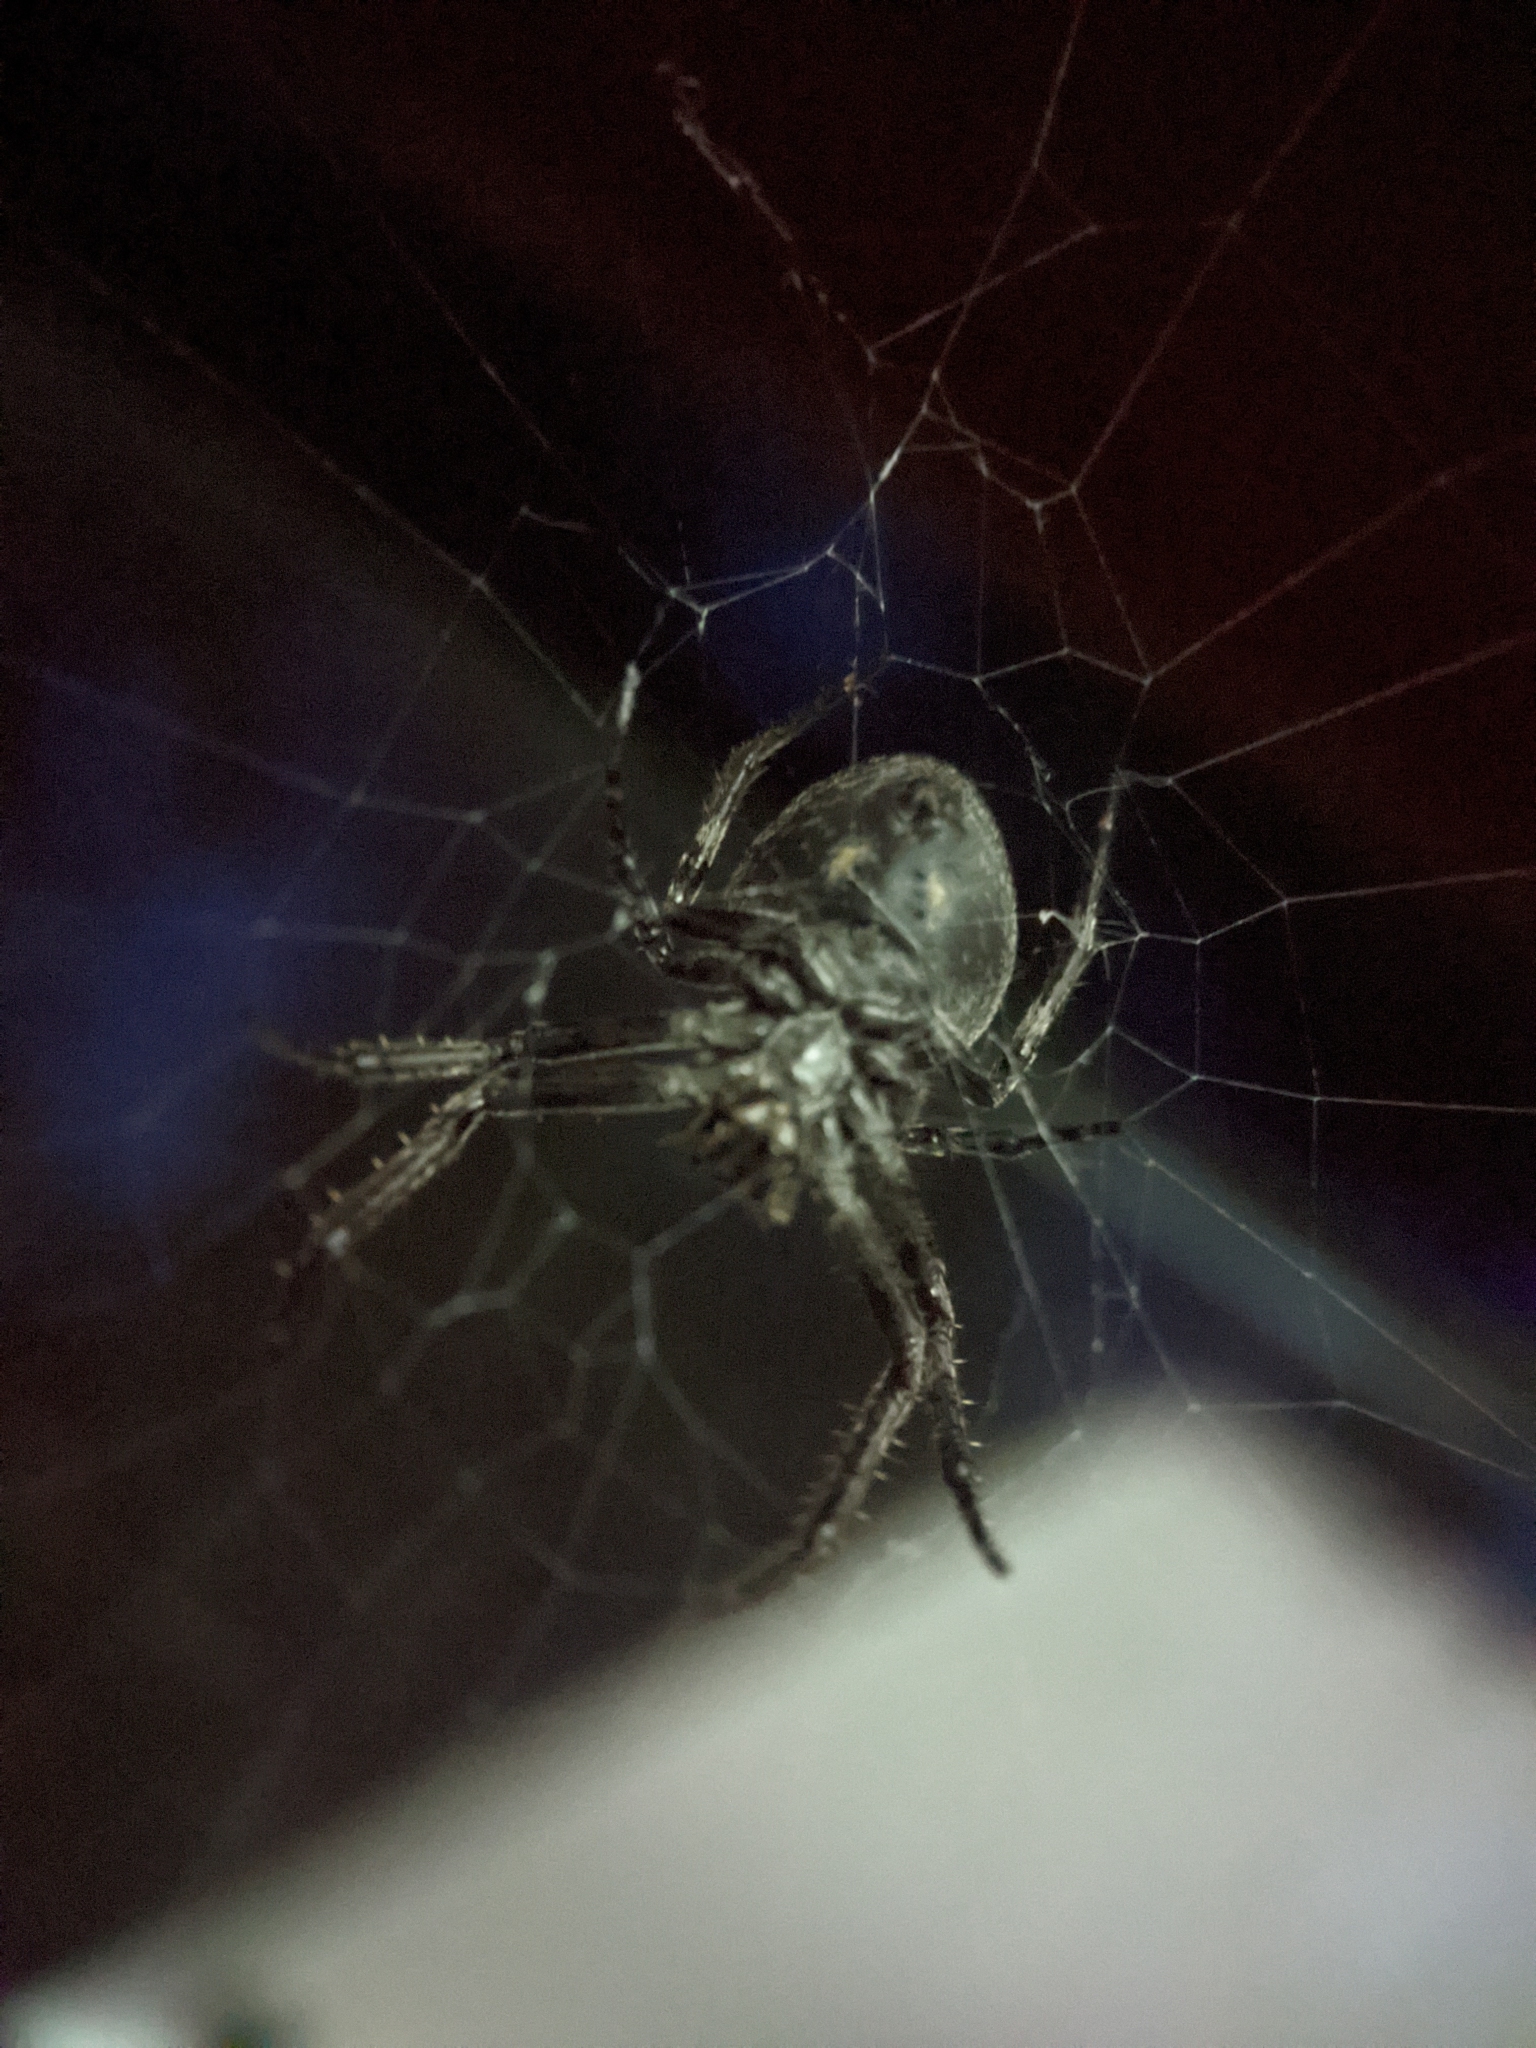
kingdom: Animalia
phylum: Arthropoda
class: Arachnida
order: Araneae
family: Araneidae
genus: Nuctenea
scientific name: Nuctenea umbratica
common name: Toad spider
